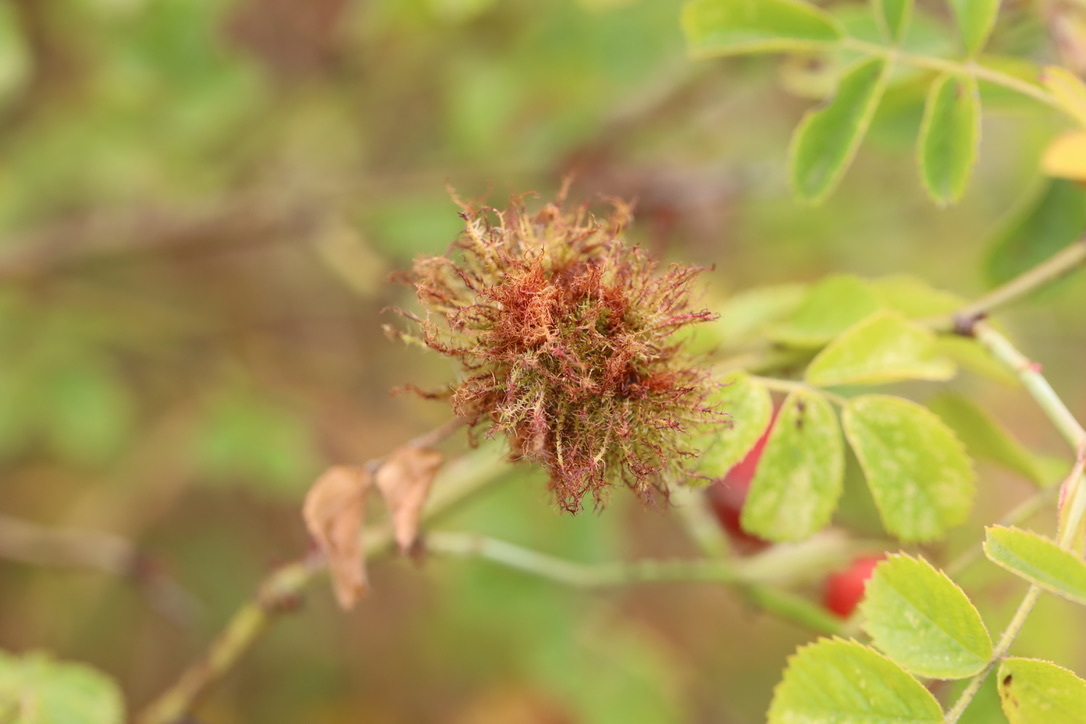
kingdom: Animalia
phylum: Arthropoda
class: Insecta
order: Hymenoptera
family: Cynipidae
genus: Diplolepis
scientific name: Diplolepis rosae
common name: Bedeguar gall
